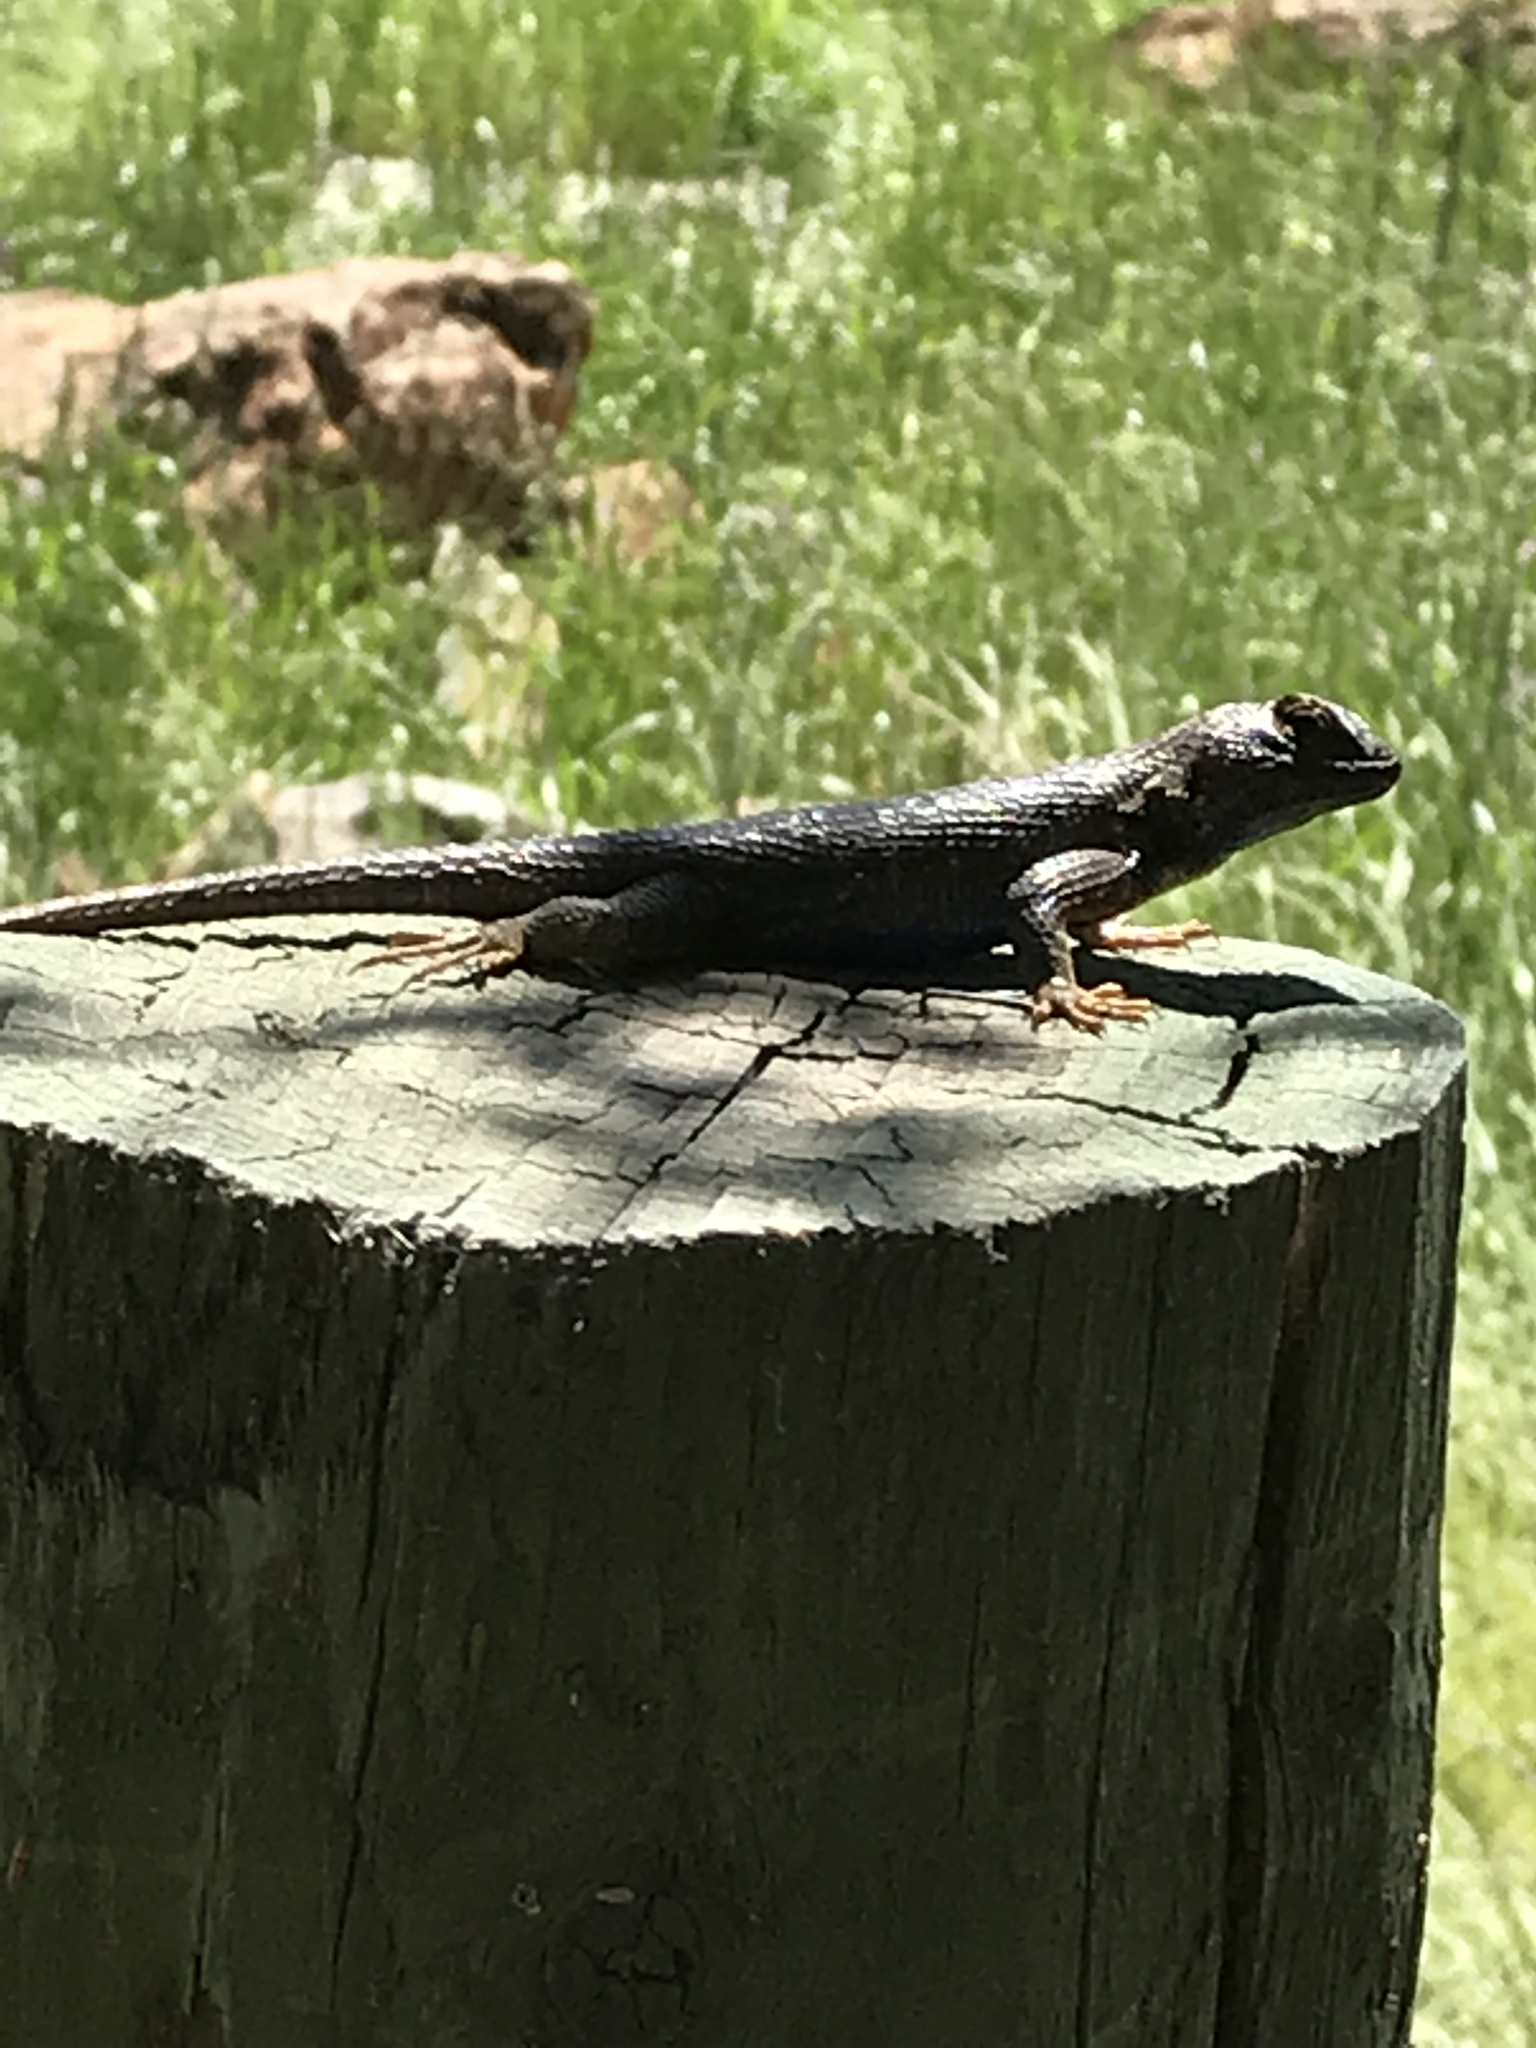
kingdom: Animalia
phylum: Chordata
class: Squamata
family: Phrynosomatidae
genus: Sceloporus
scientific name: Sceloporus occidentalis
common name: Western fence lizard
